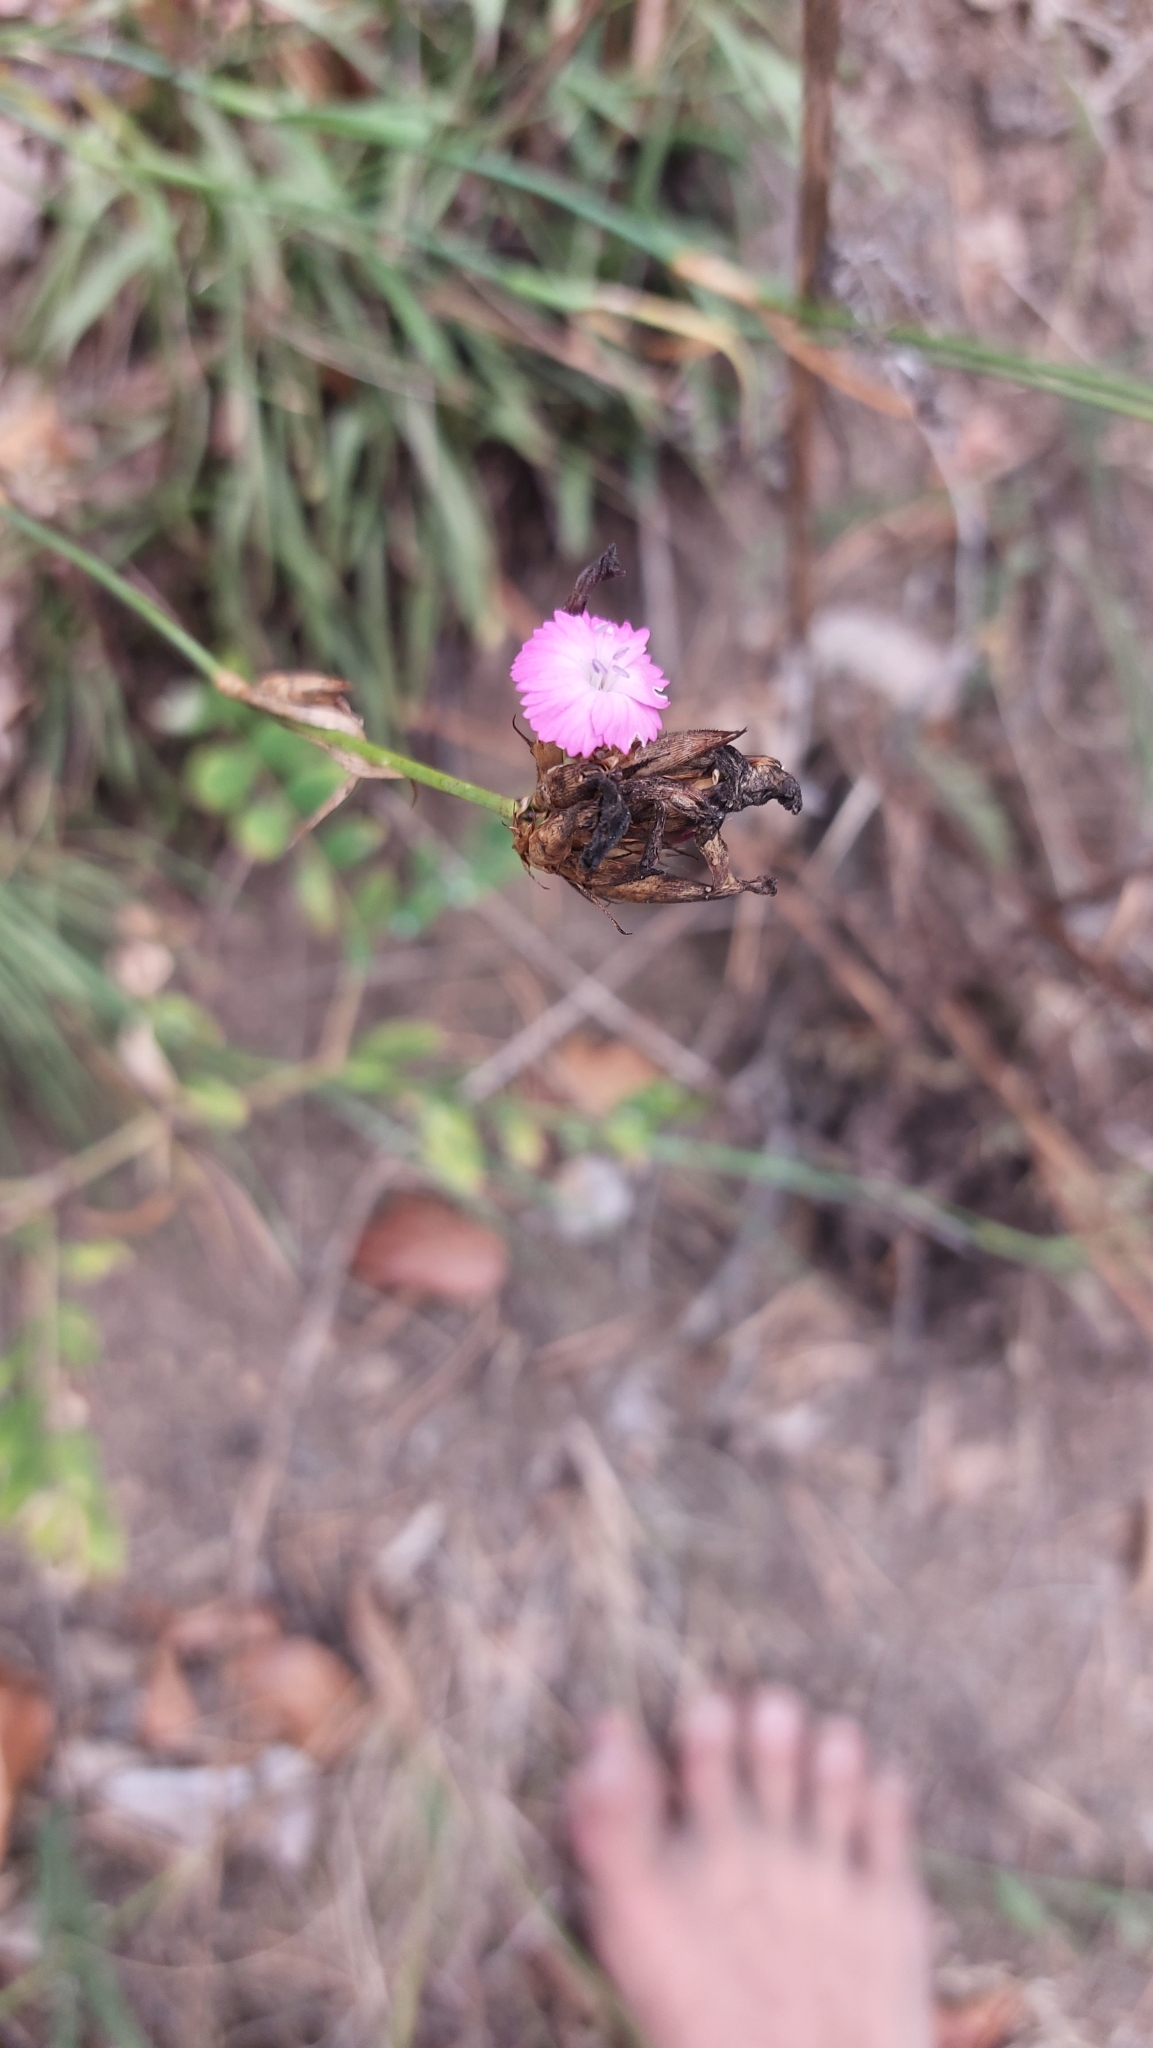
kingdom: Plantae
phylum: Tracheophyta
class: Magnoliopsida
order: Caryophyllales
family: Caryophyllaceae
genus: Dianthus
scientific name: Dianthus carthusianorum
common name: Carthusian pink
